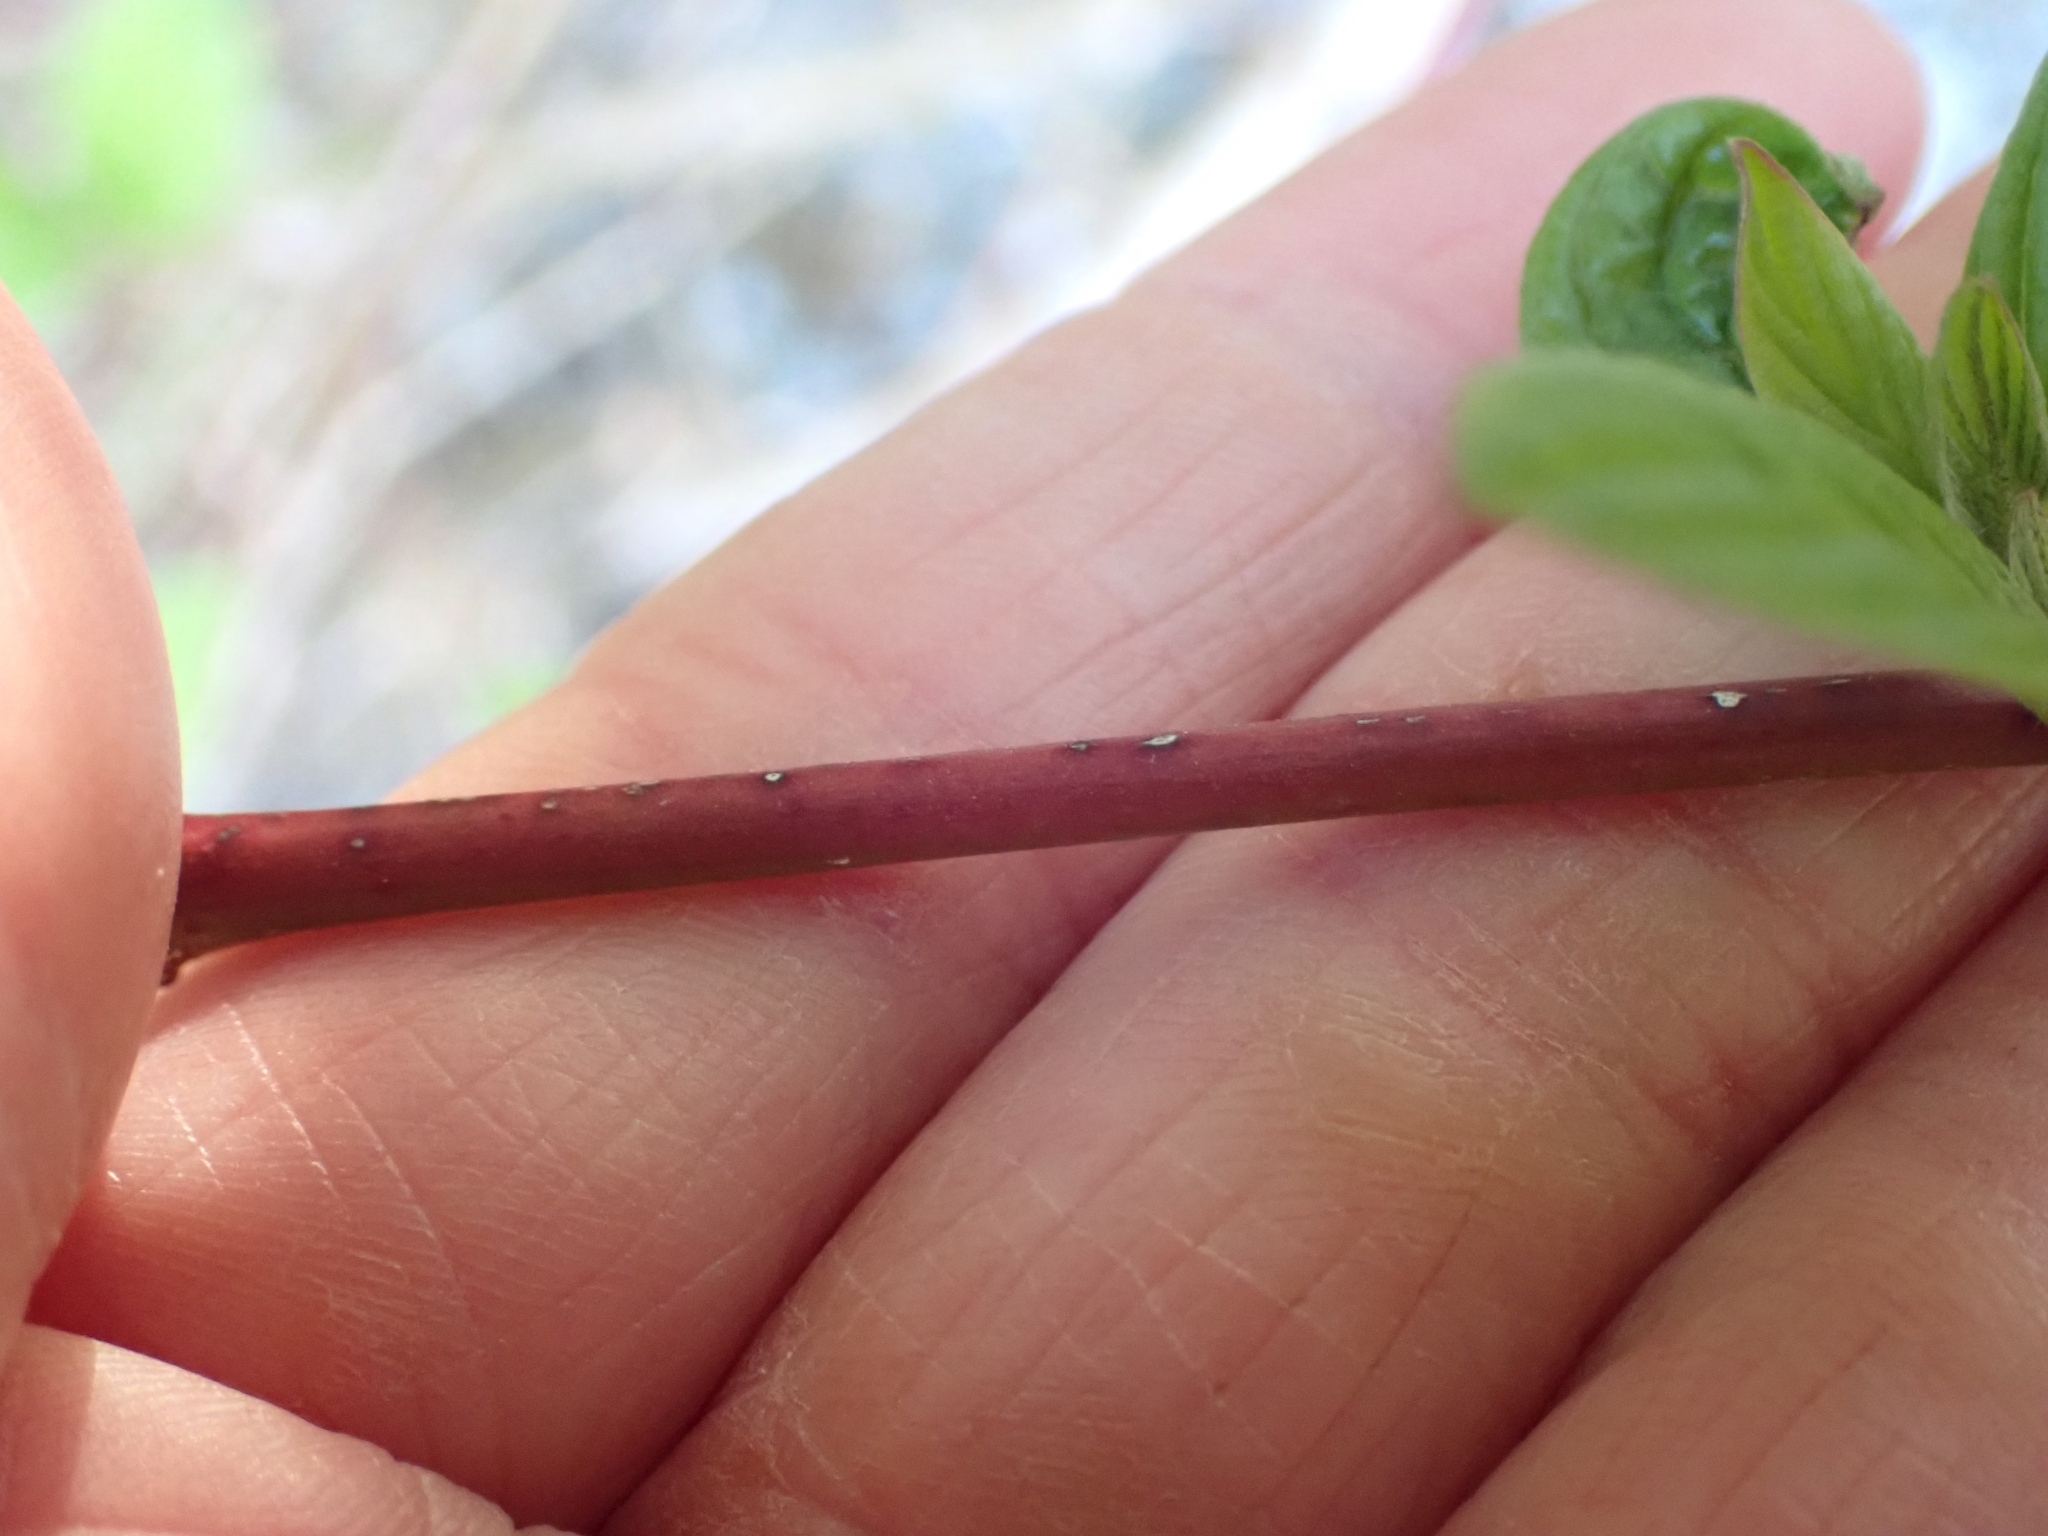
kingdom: Plantae
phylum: Tracheophyta
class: Magnoliopsida
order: Cornales
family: Cornaceae
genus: Cornus
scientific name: Cornus sericea
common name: Red-osier dogwood
